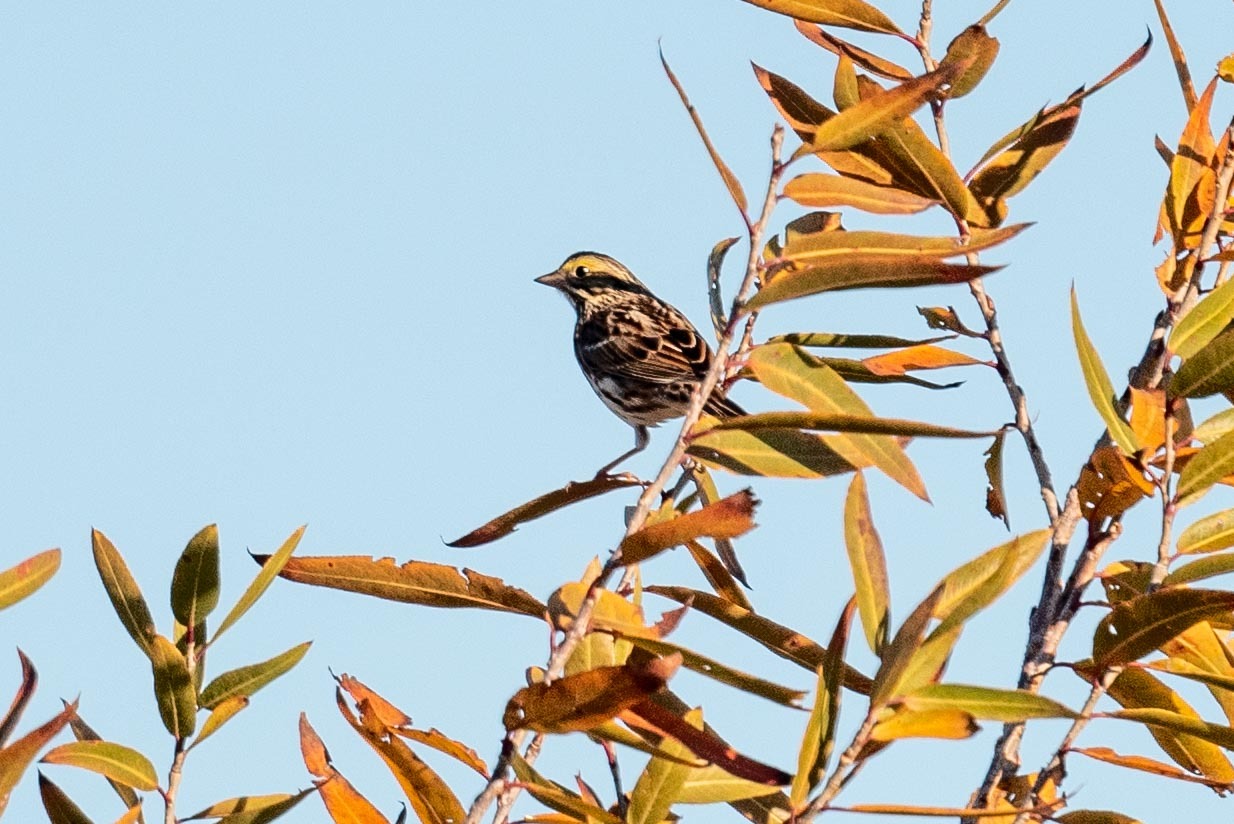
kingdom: Animalia
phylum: Chordata
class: Aves
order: Passeriformes
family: Passerellidae
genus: Passerculus
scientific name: Passerculus sandwichensis
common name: Savannah sparrow
